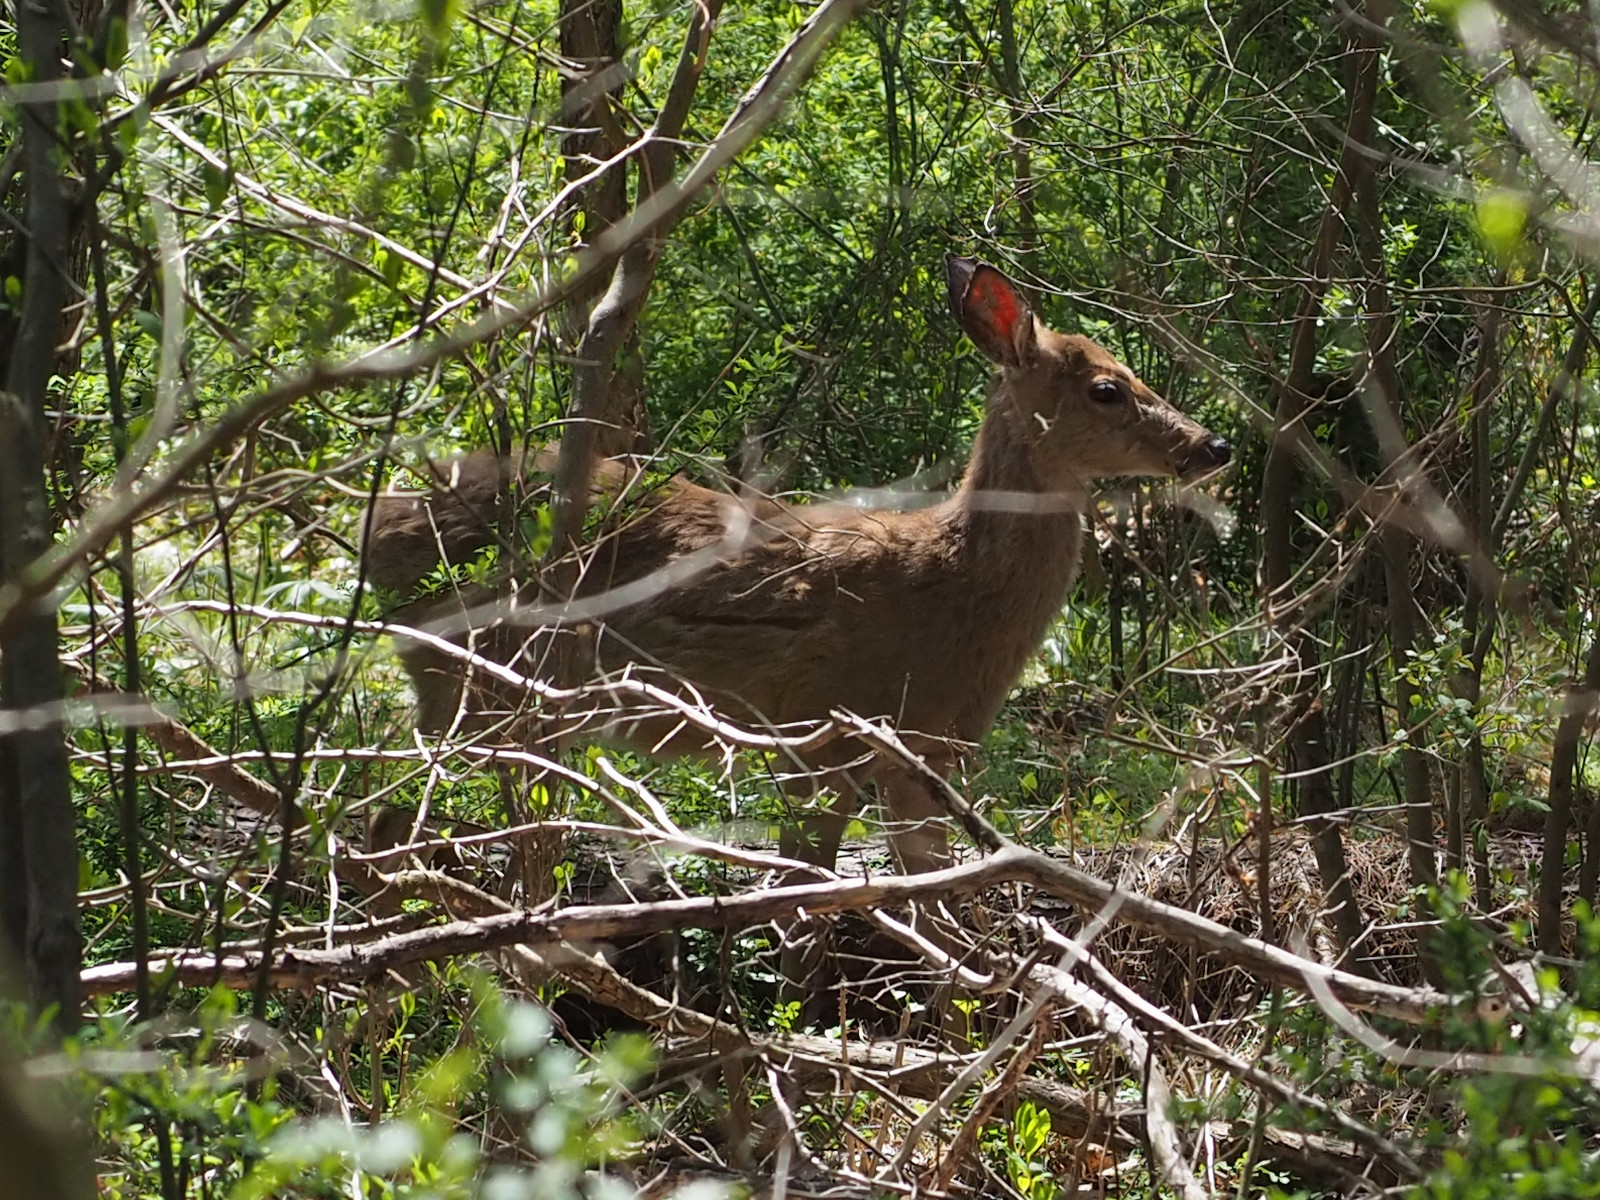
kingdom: Animalia
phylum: Chordata
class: Mammalia
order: Artiodactyla
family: Cervidae
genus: Odocoileus
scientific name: Odocoileus virginianus
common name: White-tailed deer
